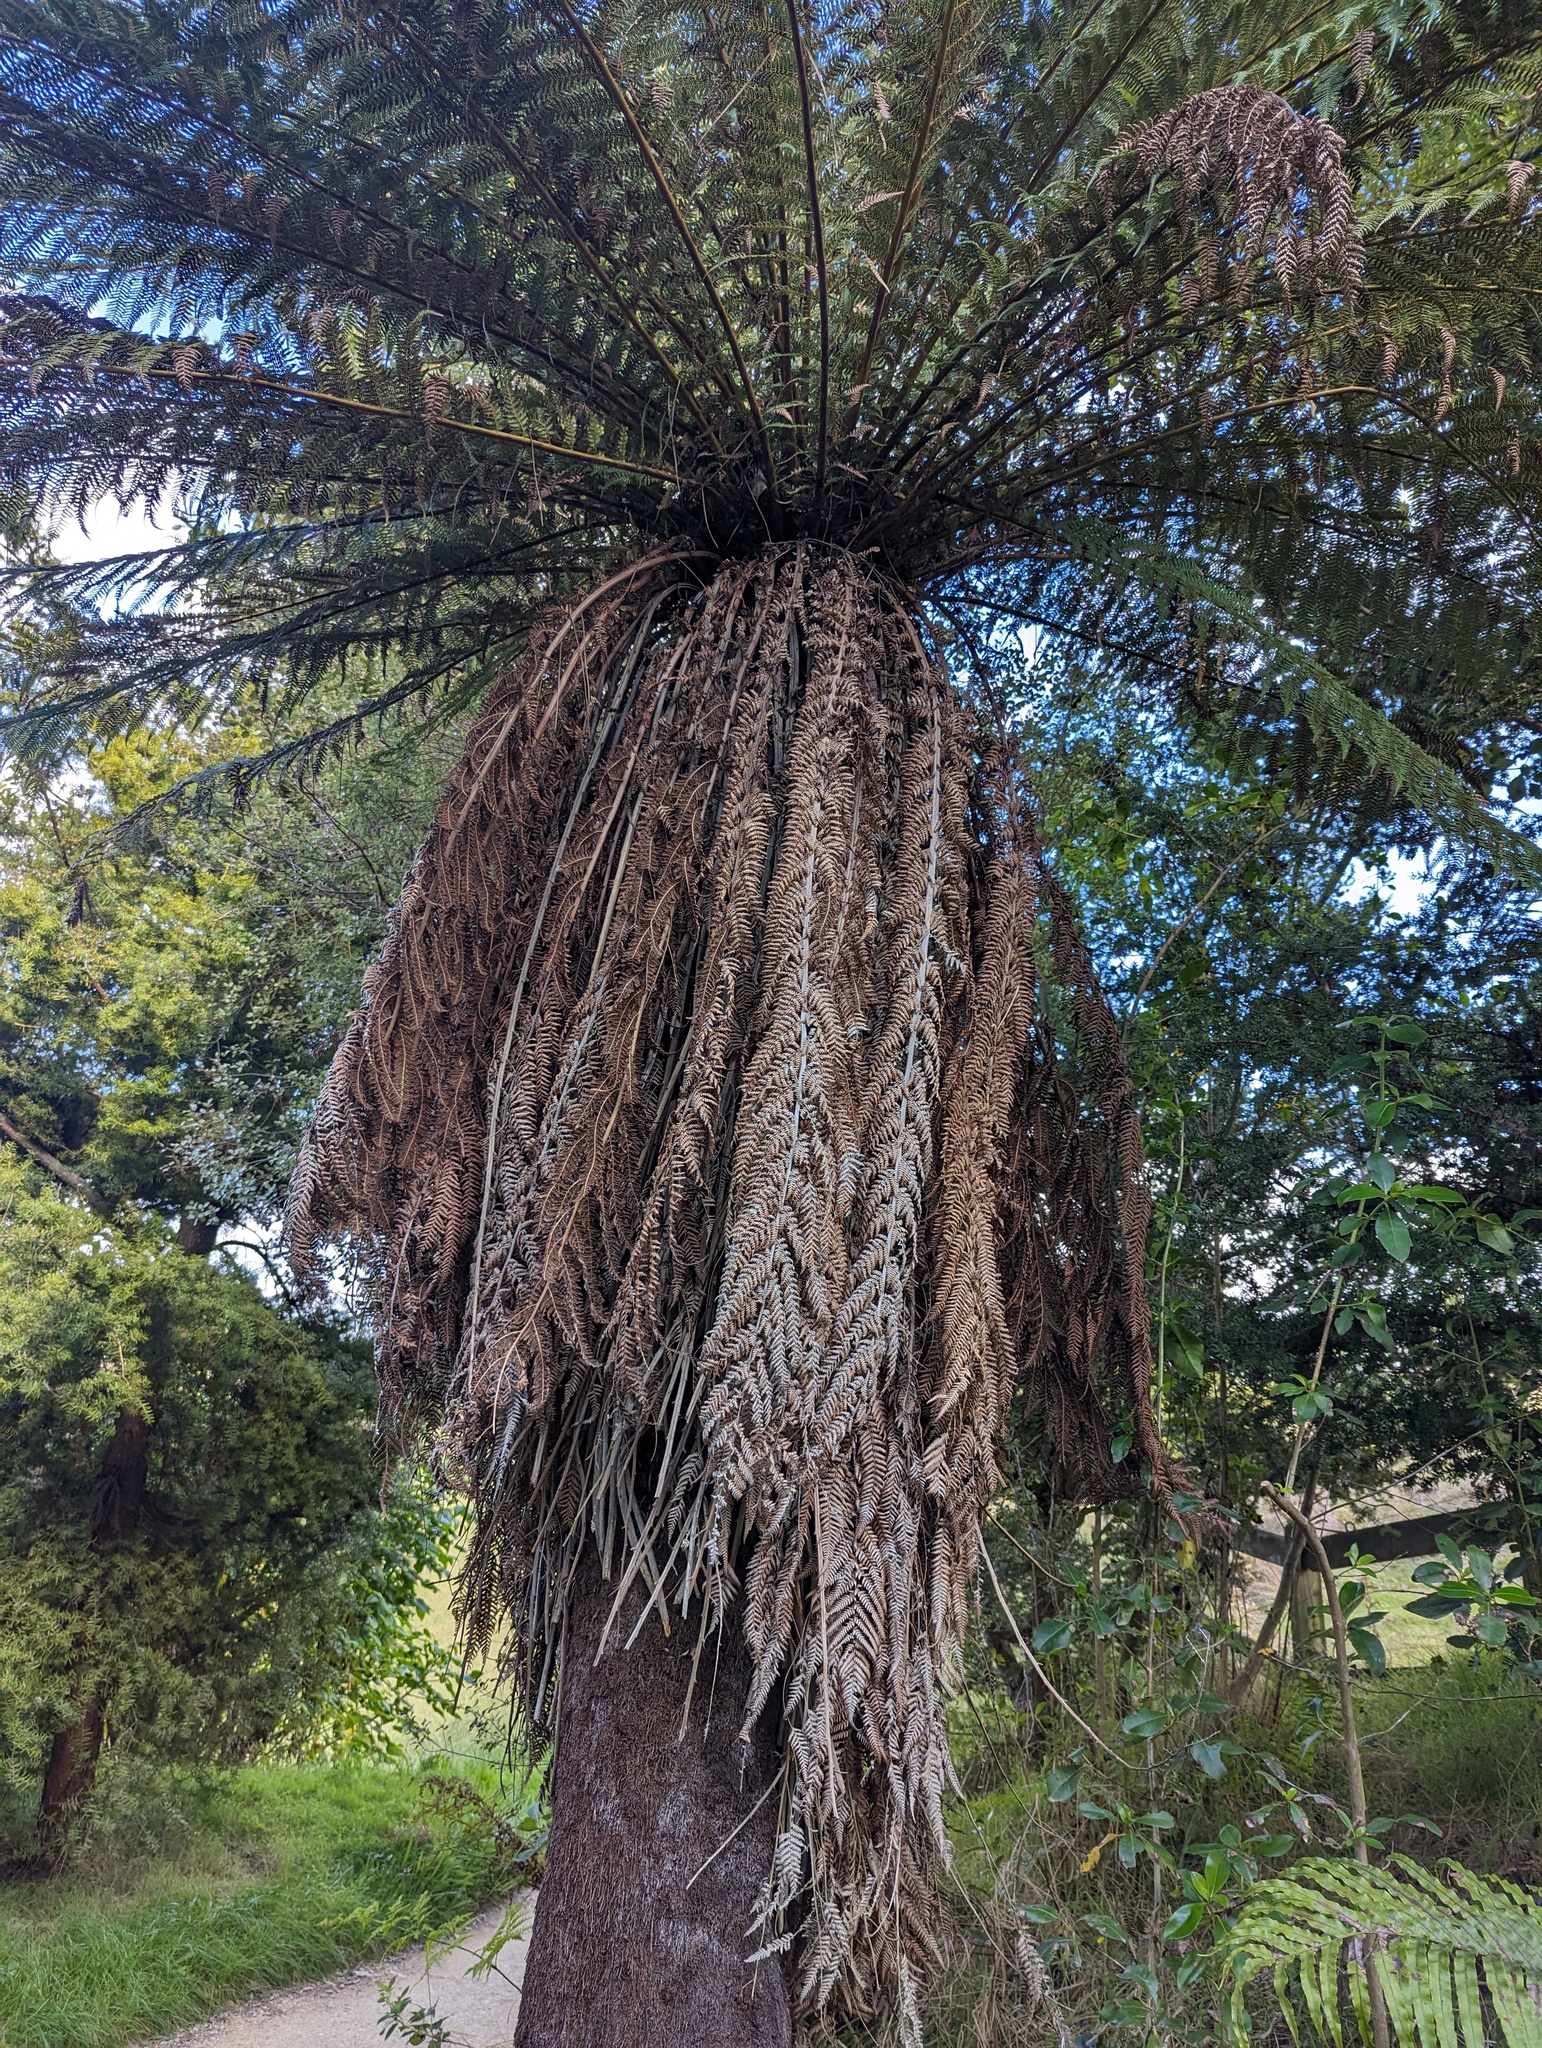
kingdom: Plantae
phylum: Tracheophyta
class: Polypodiopsida
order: Cyatheales
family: Dicksoniaceae
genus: Dicksonia
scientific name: Dicksonia fibrosa
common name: Golden tree fern
